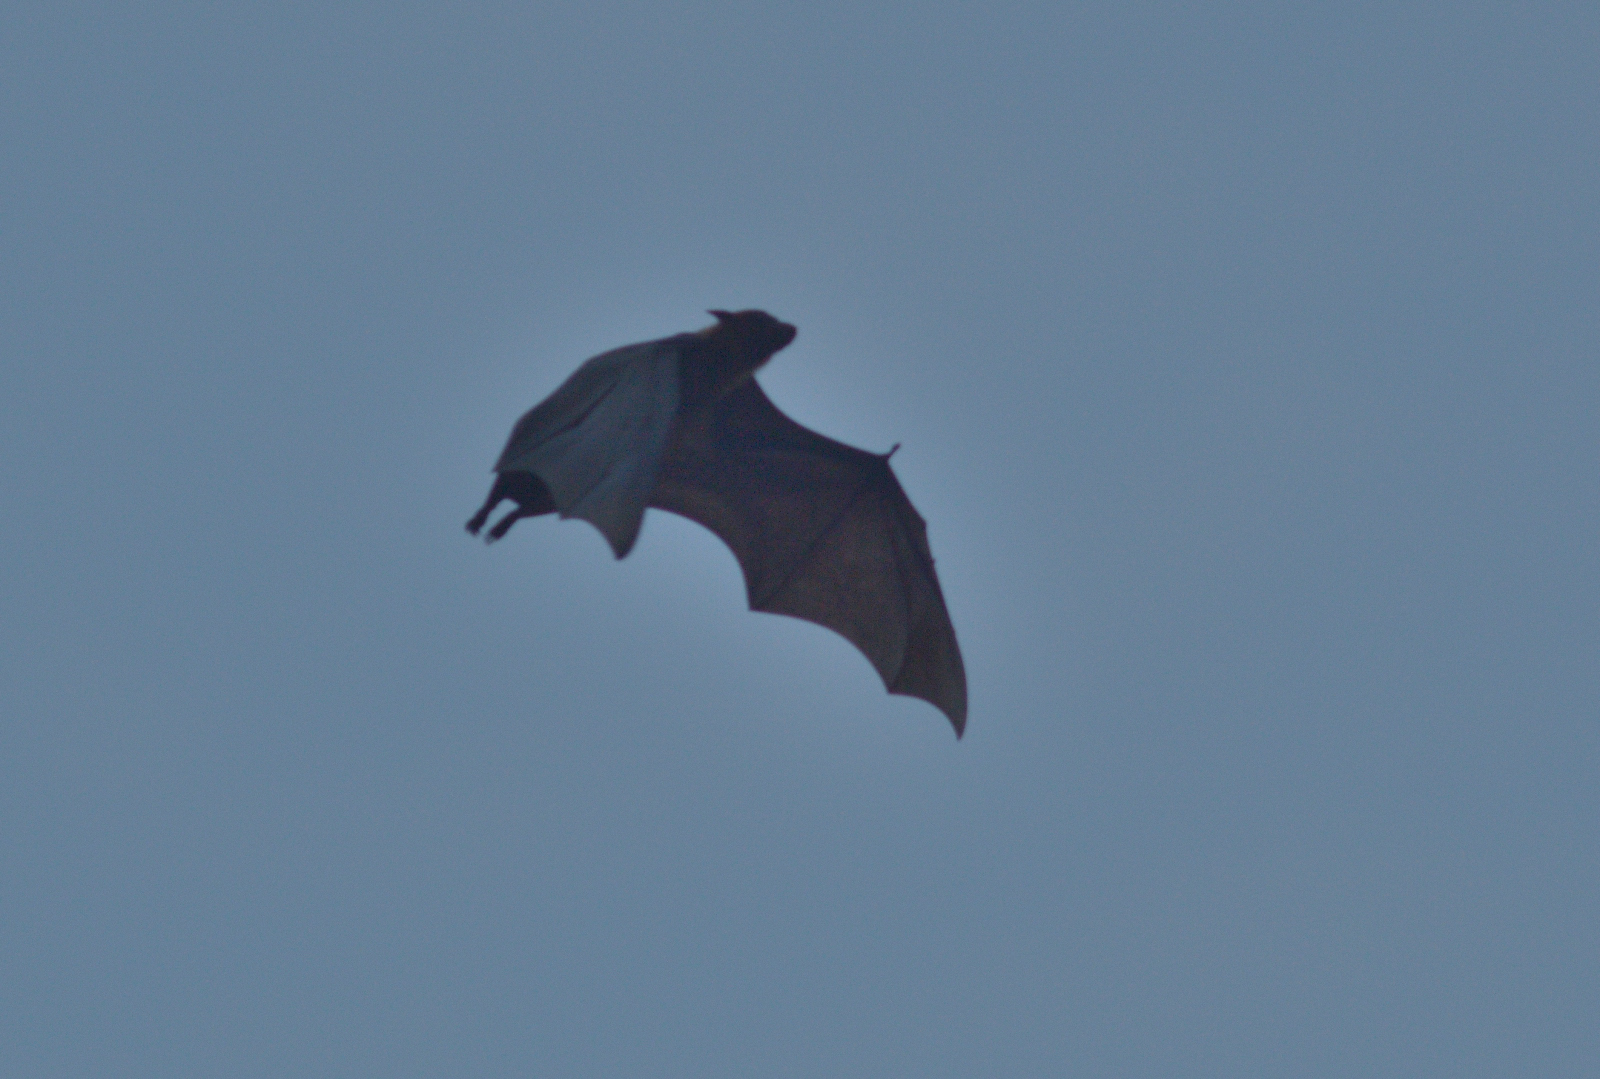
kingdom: Animalia
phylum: Chordata
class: Mammalia
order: Chiroptera
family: Pteropodidae
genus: Pteropus
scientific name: Pteropus vampyrus
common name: Large flying fox
